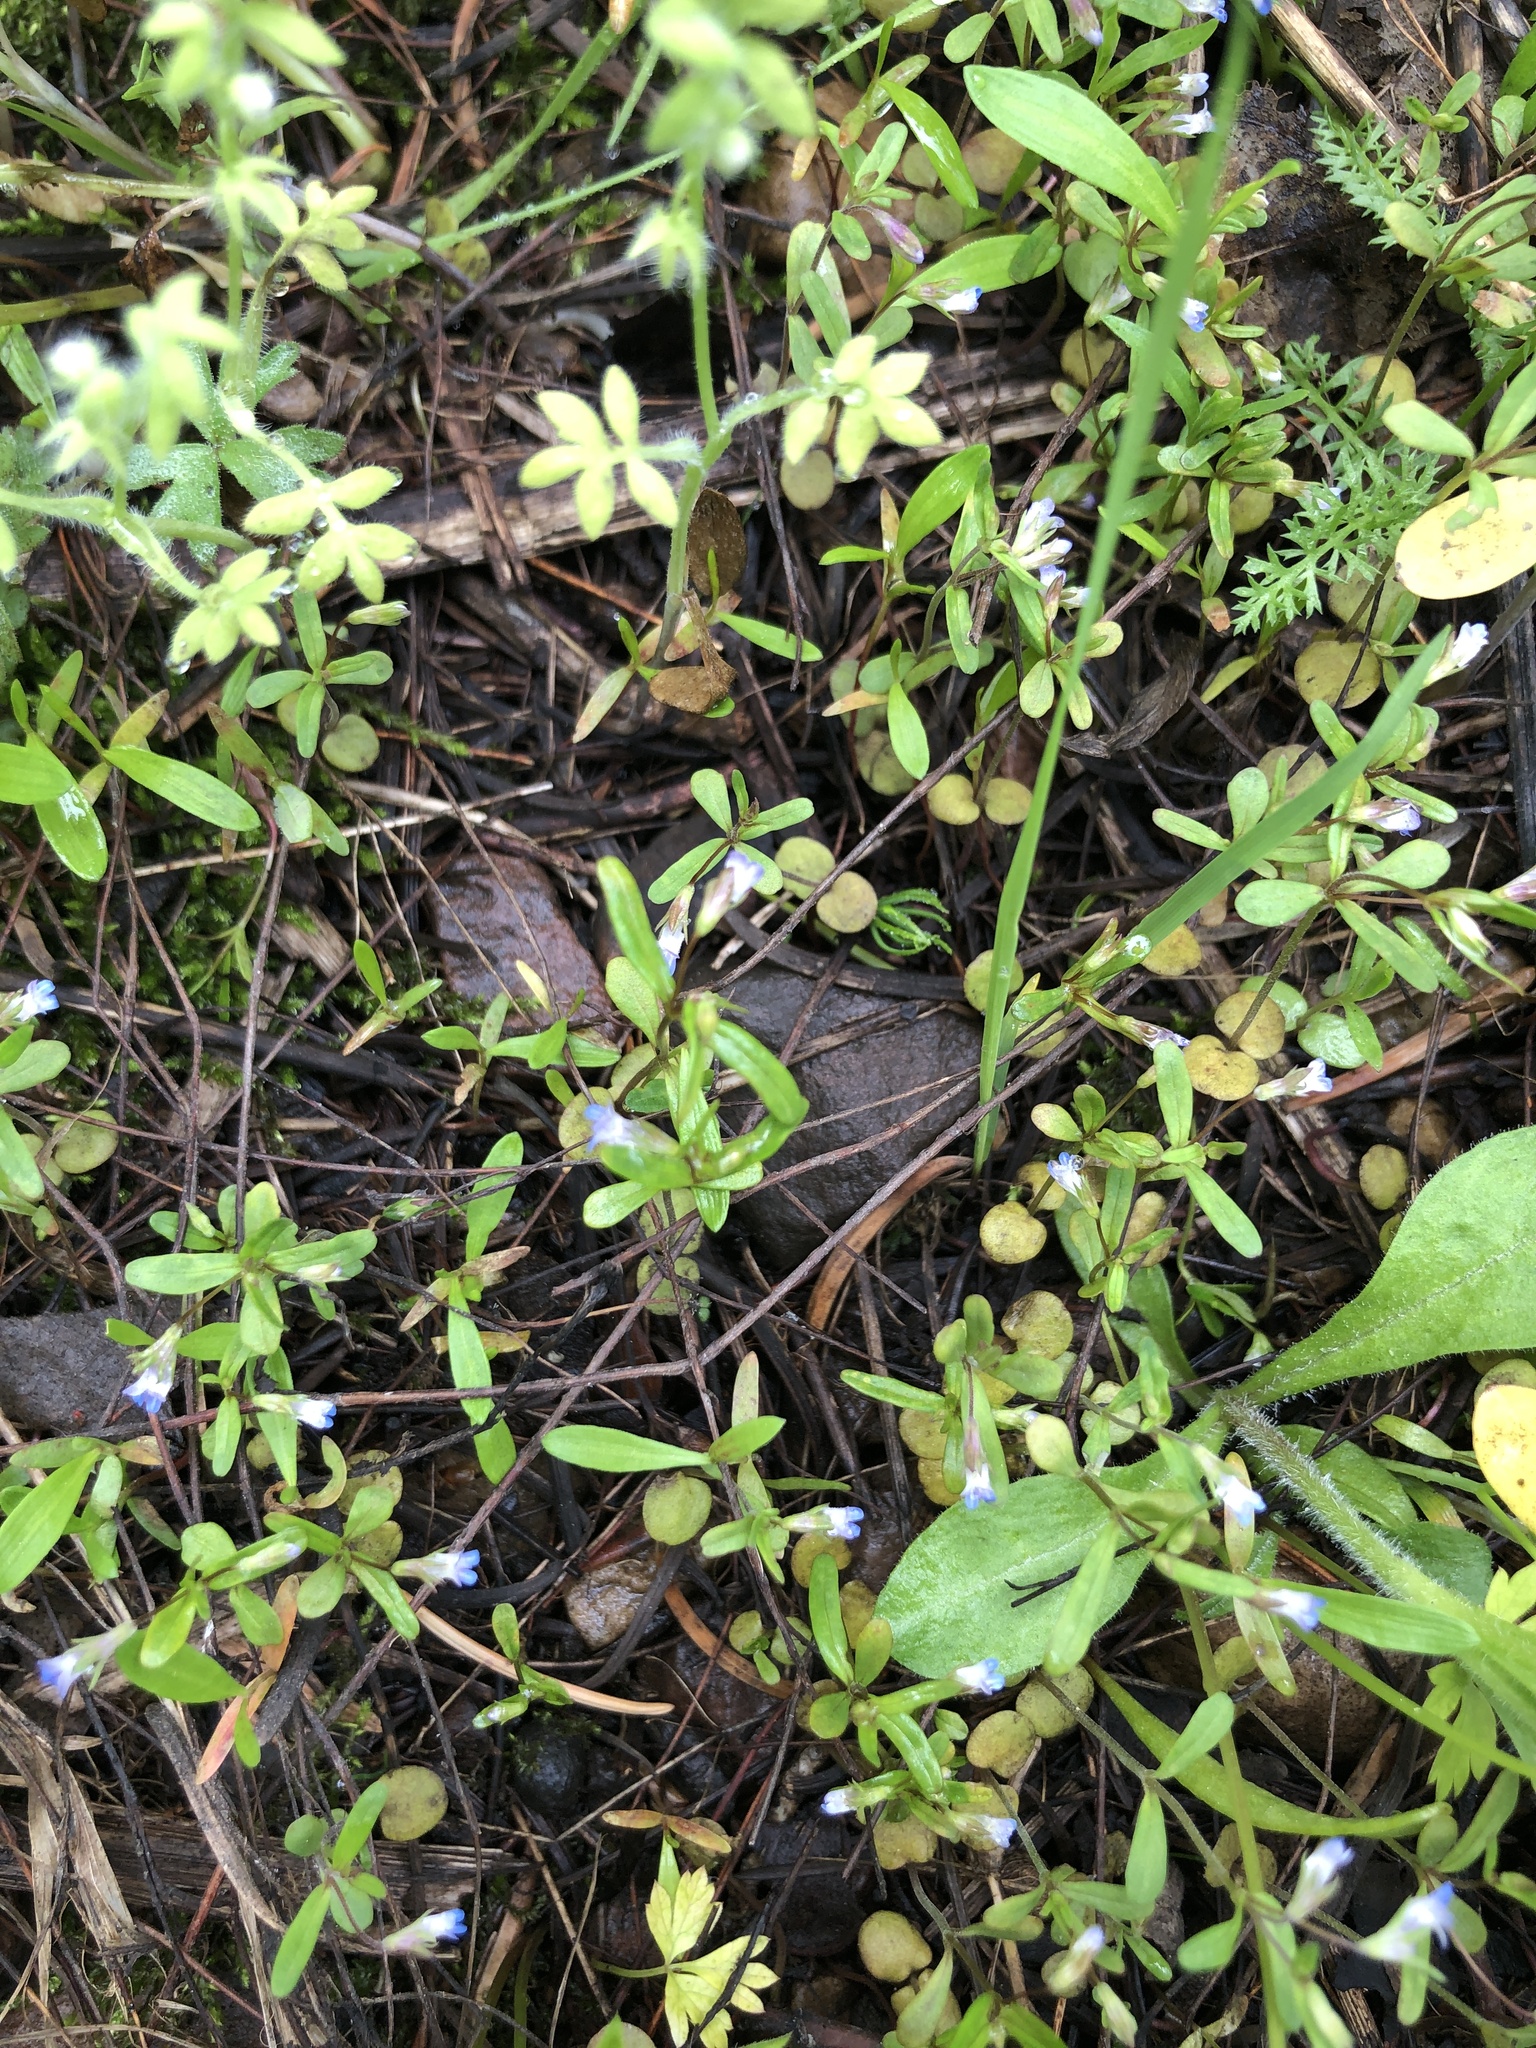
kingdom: Plantae
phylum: Tracheophyta
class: Magnoliopsida
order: Lamiales
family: Plantaginaceae
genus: Collinsia
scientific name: Collinsia parviflora
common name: Blue-lips
